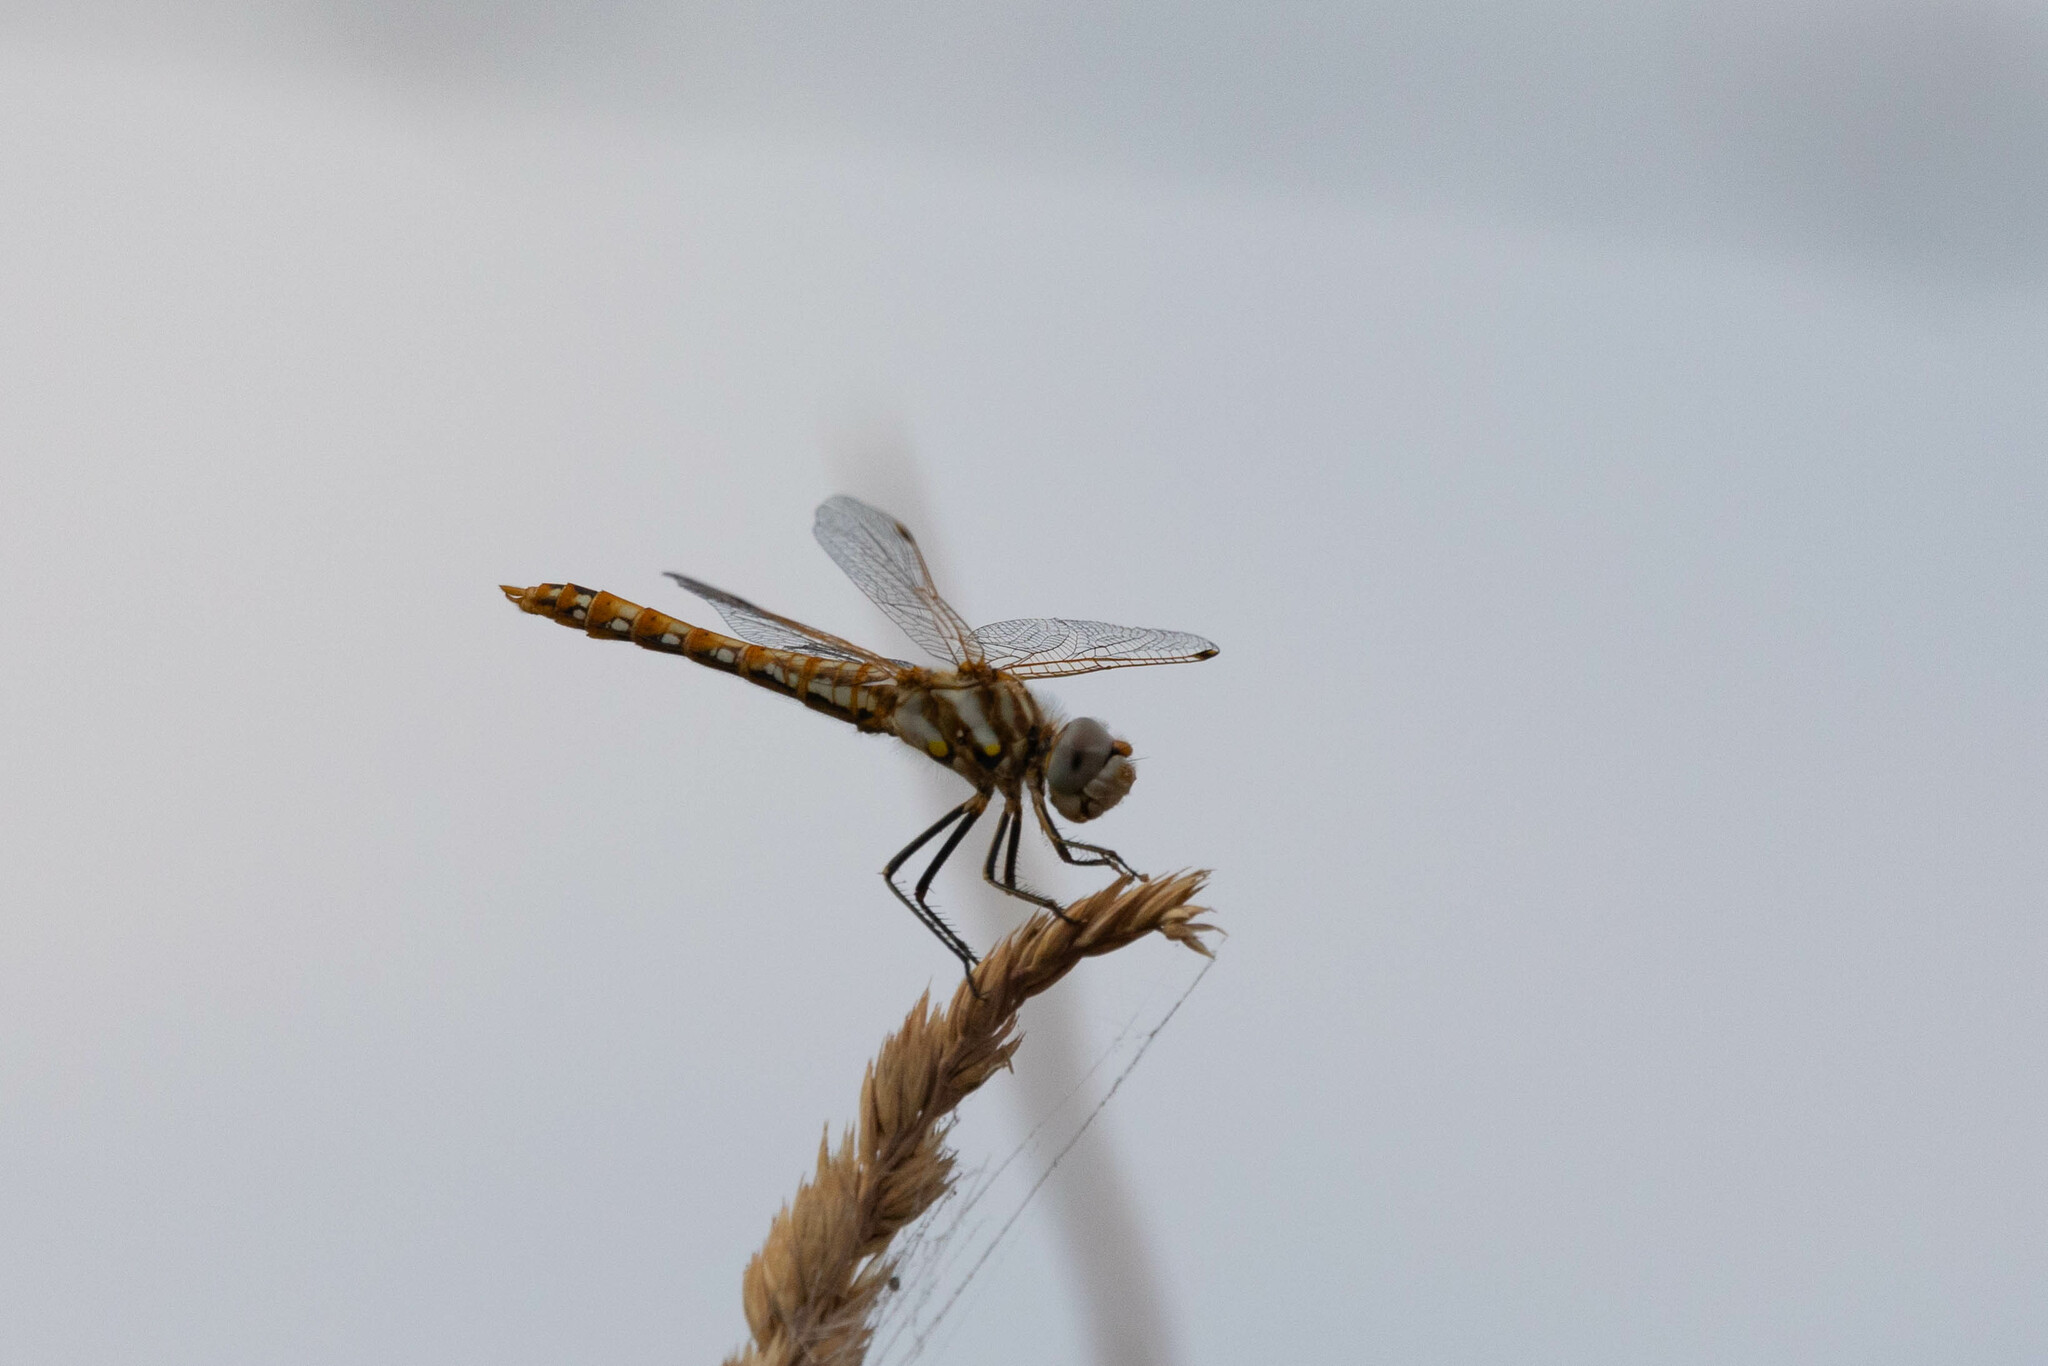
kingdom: Animalia
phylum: Arthropoda
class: Insecta
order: Odonata
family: Libellulidae
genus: Sympetrum
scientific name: Sympetrum corruptum
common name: Variegated meadowhawk
